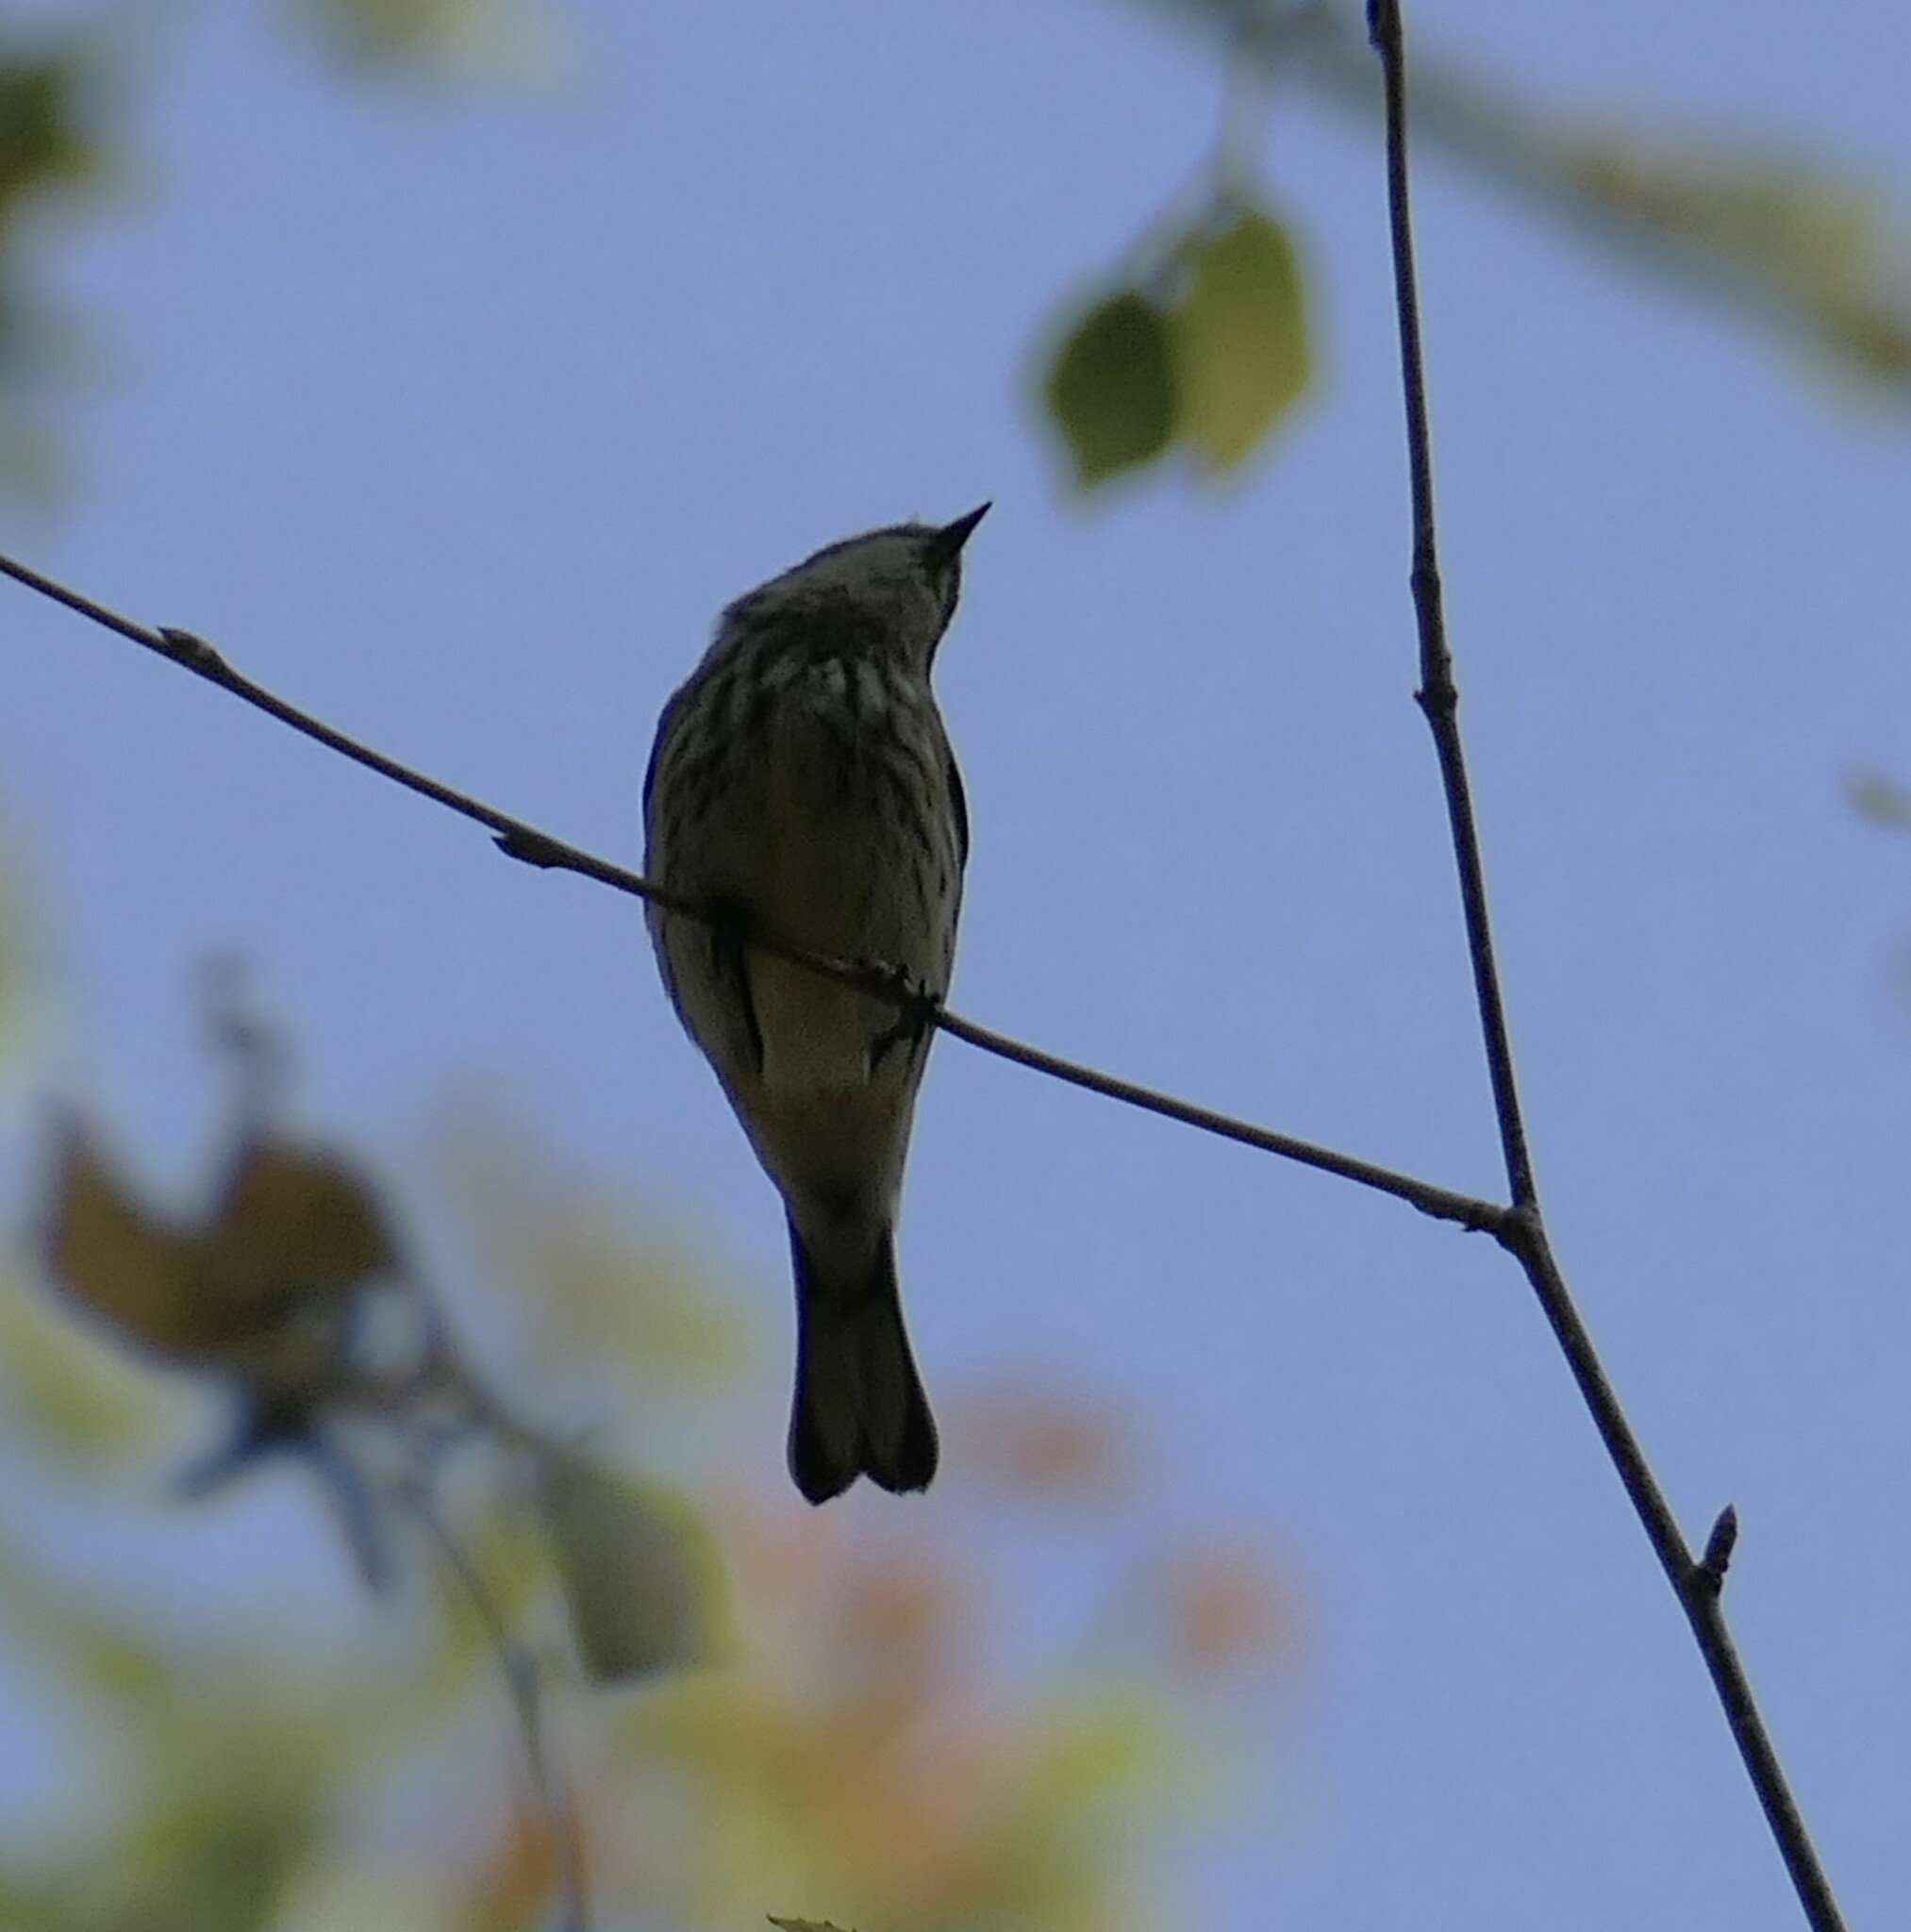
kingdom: Animalia
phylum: Chordata
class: Aves
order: Passeriformes
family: Parulidae
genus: Setophaga
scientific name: Setophaga coronata
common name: Myrtle warbler
